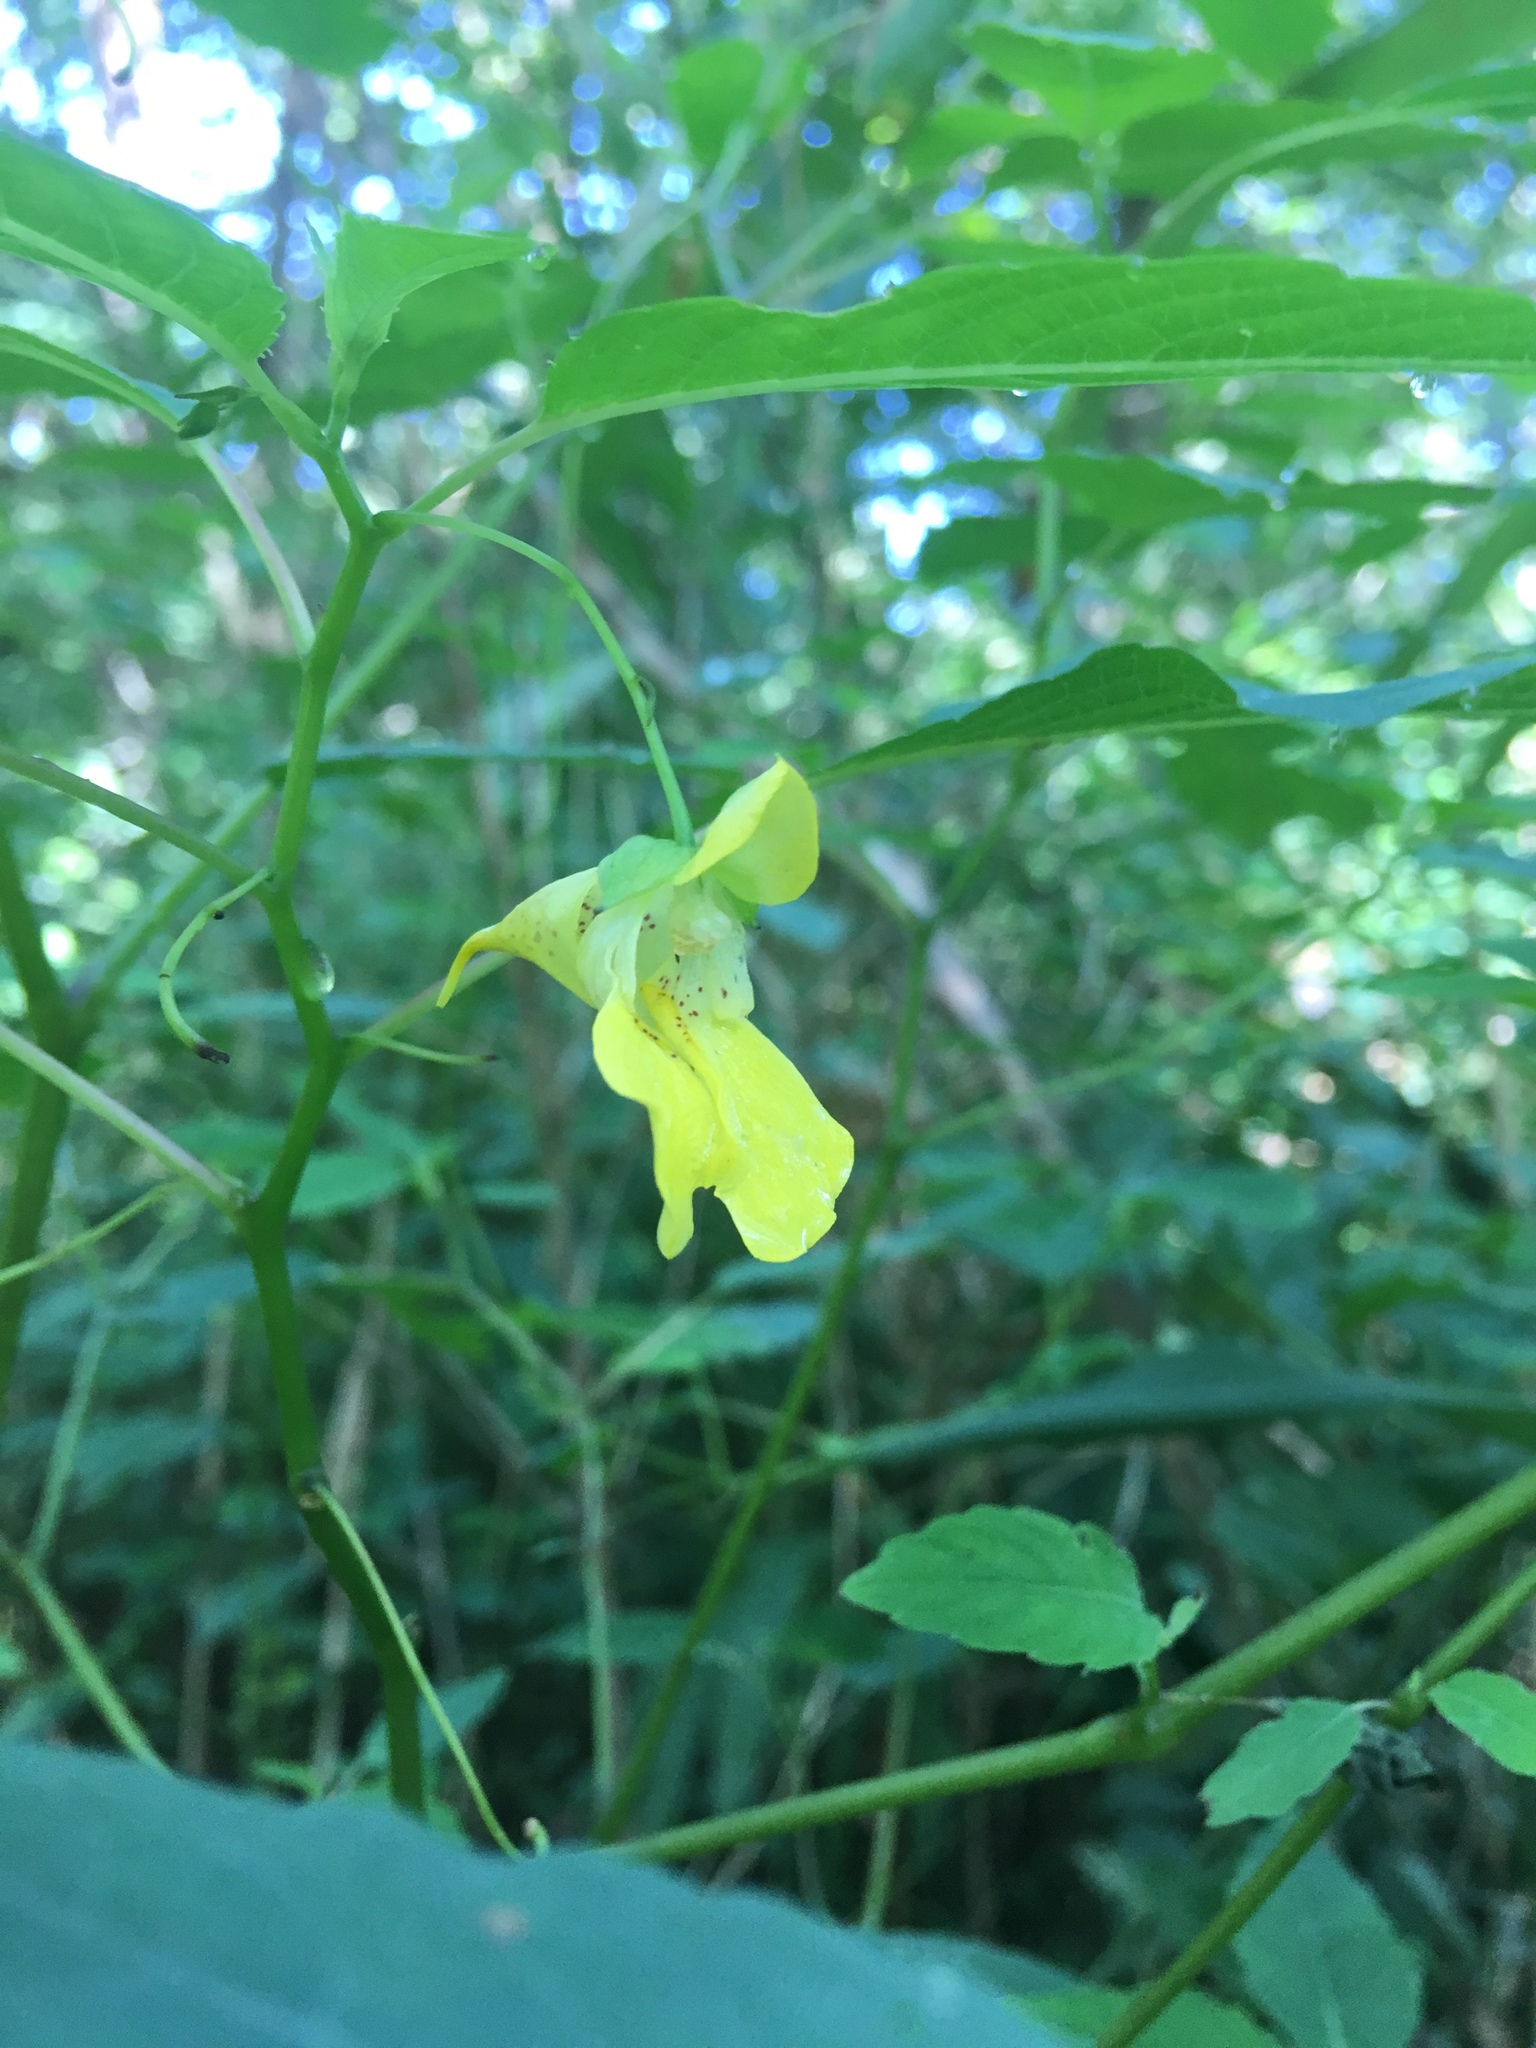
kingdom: Plantae
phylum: Tracheophyta
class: Magnoliopsida
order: Ericales
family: Balsaminaceae
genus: Impatiens
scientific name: Impatiens pallida
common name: Pale snapweed
